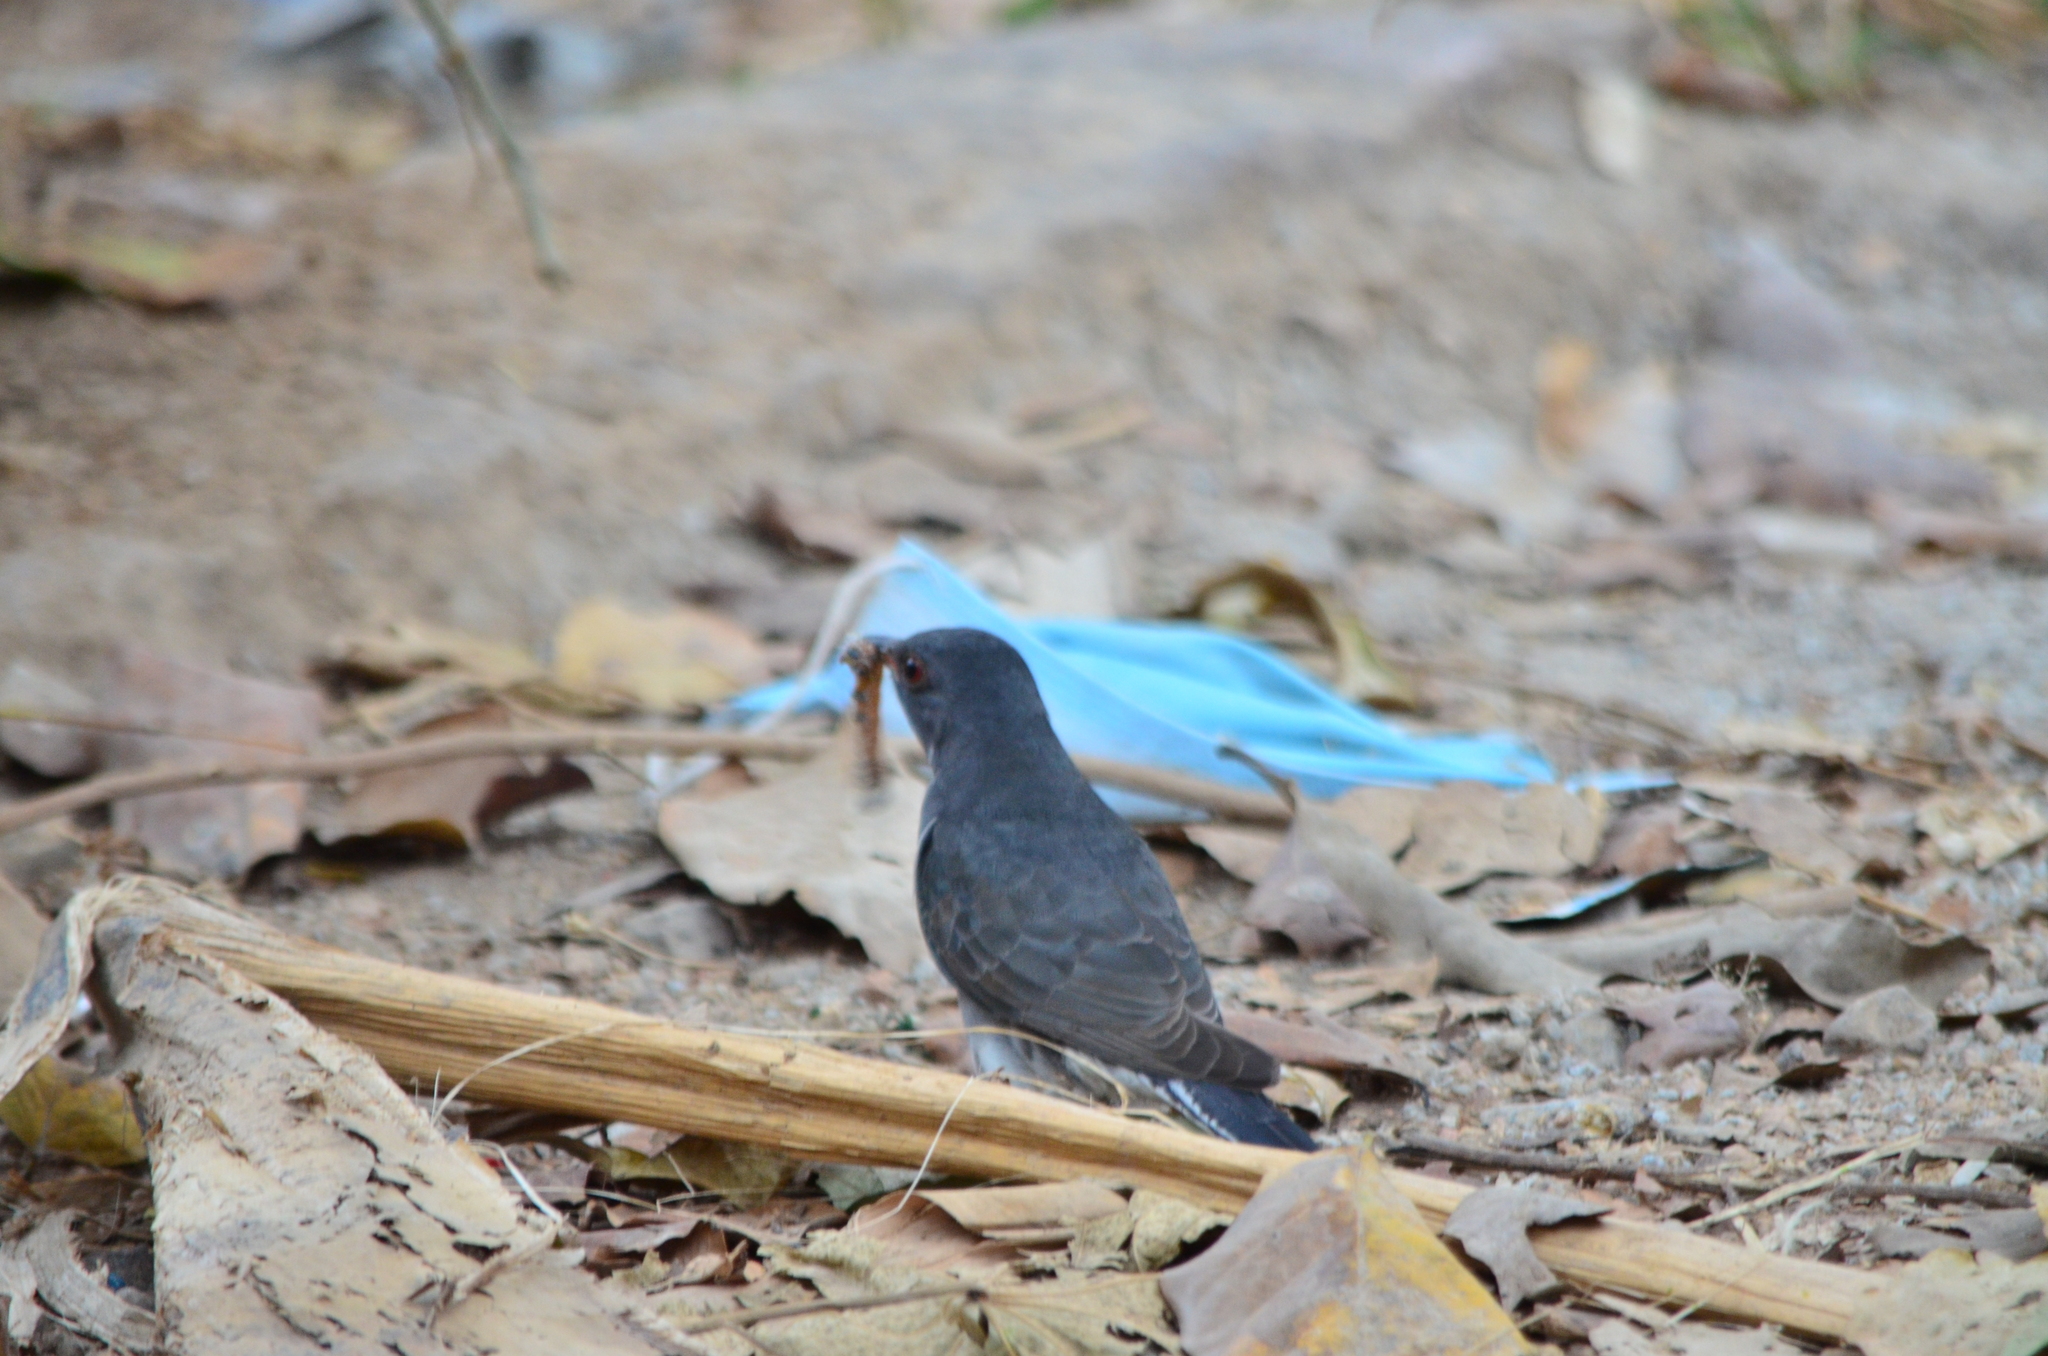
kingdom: Animalia
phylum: Chordata
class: Aves
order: Cuculiformes
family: Cuculidae
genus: Cacomantis
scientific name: Cacomantis passerinus
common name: Grey-bellied cuckoo
